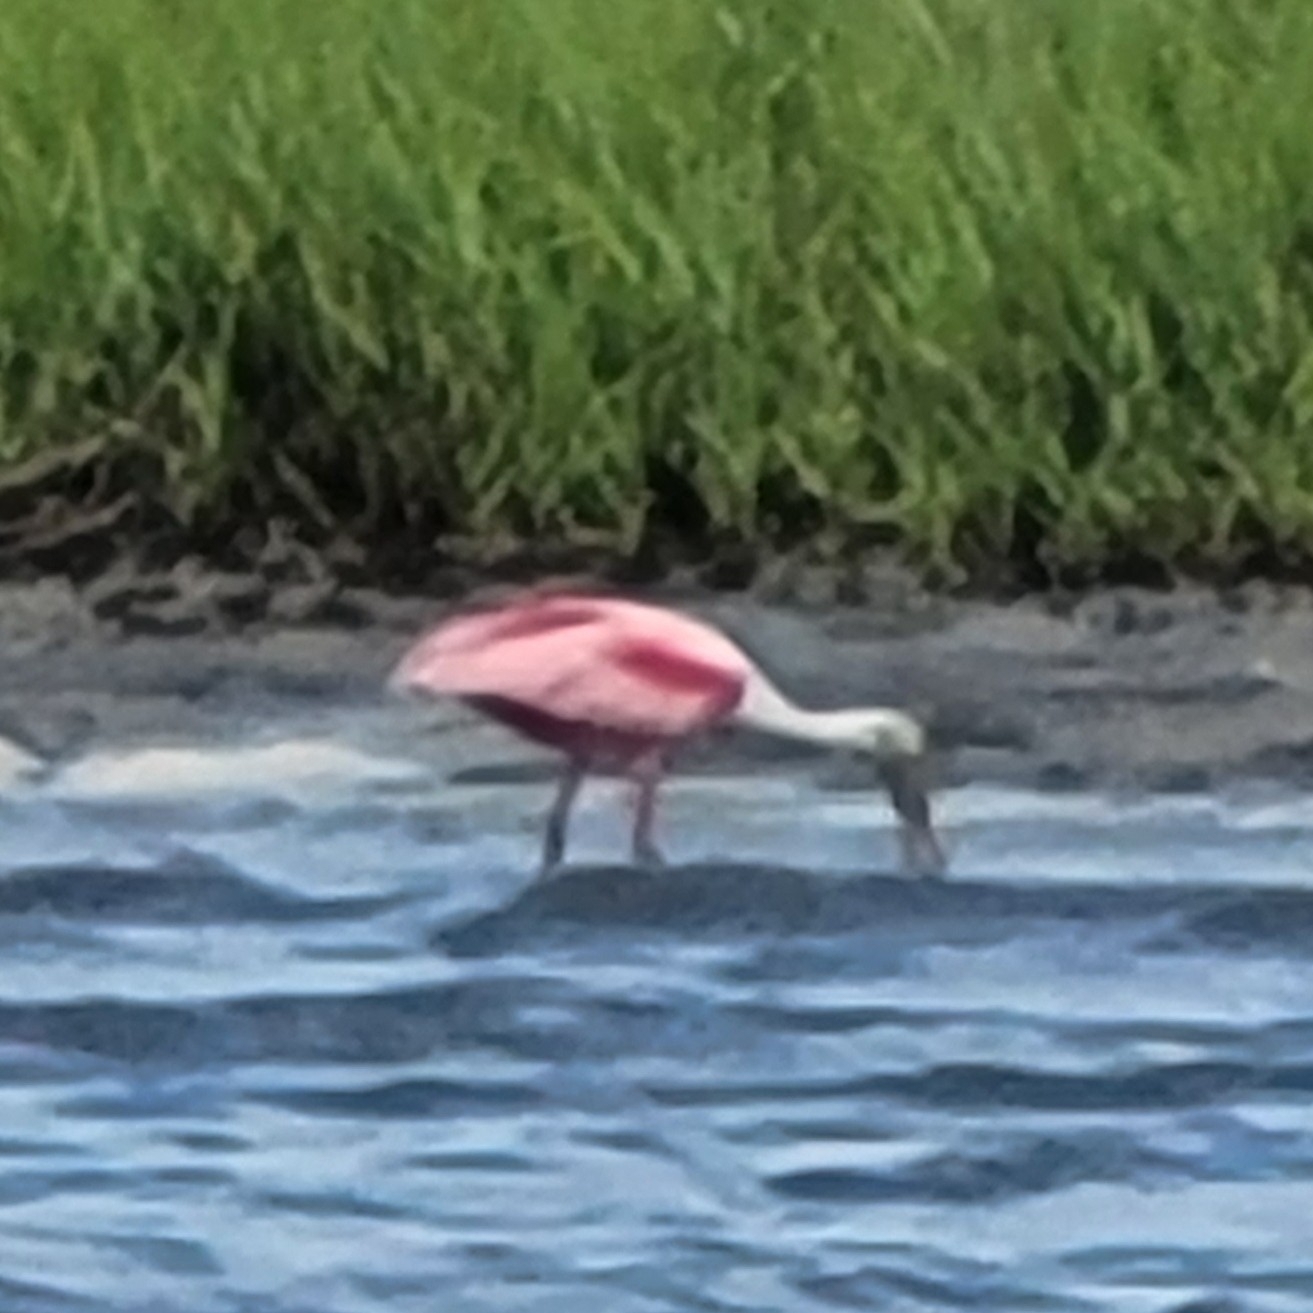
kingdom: Animalia
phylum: Chordata
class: Aves
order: Pelecaniformes
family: Threskiornithidae
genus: Platalea
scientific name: Platalea ajaja
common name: Roseate spoonbill
